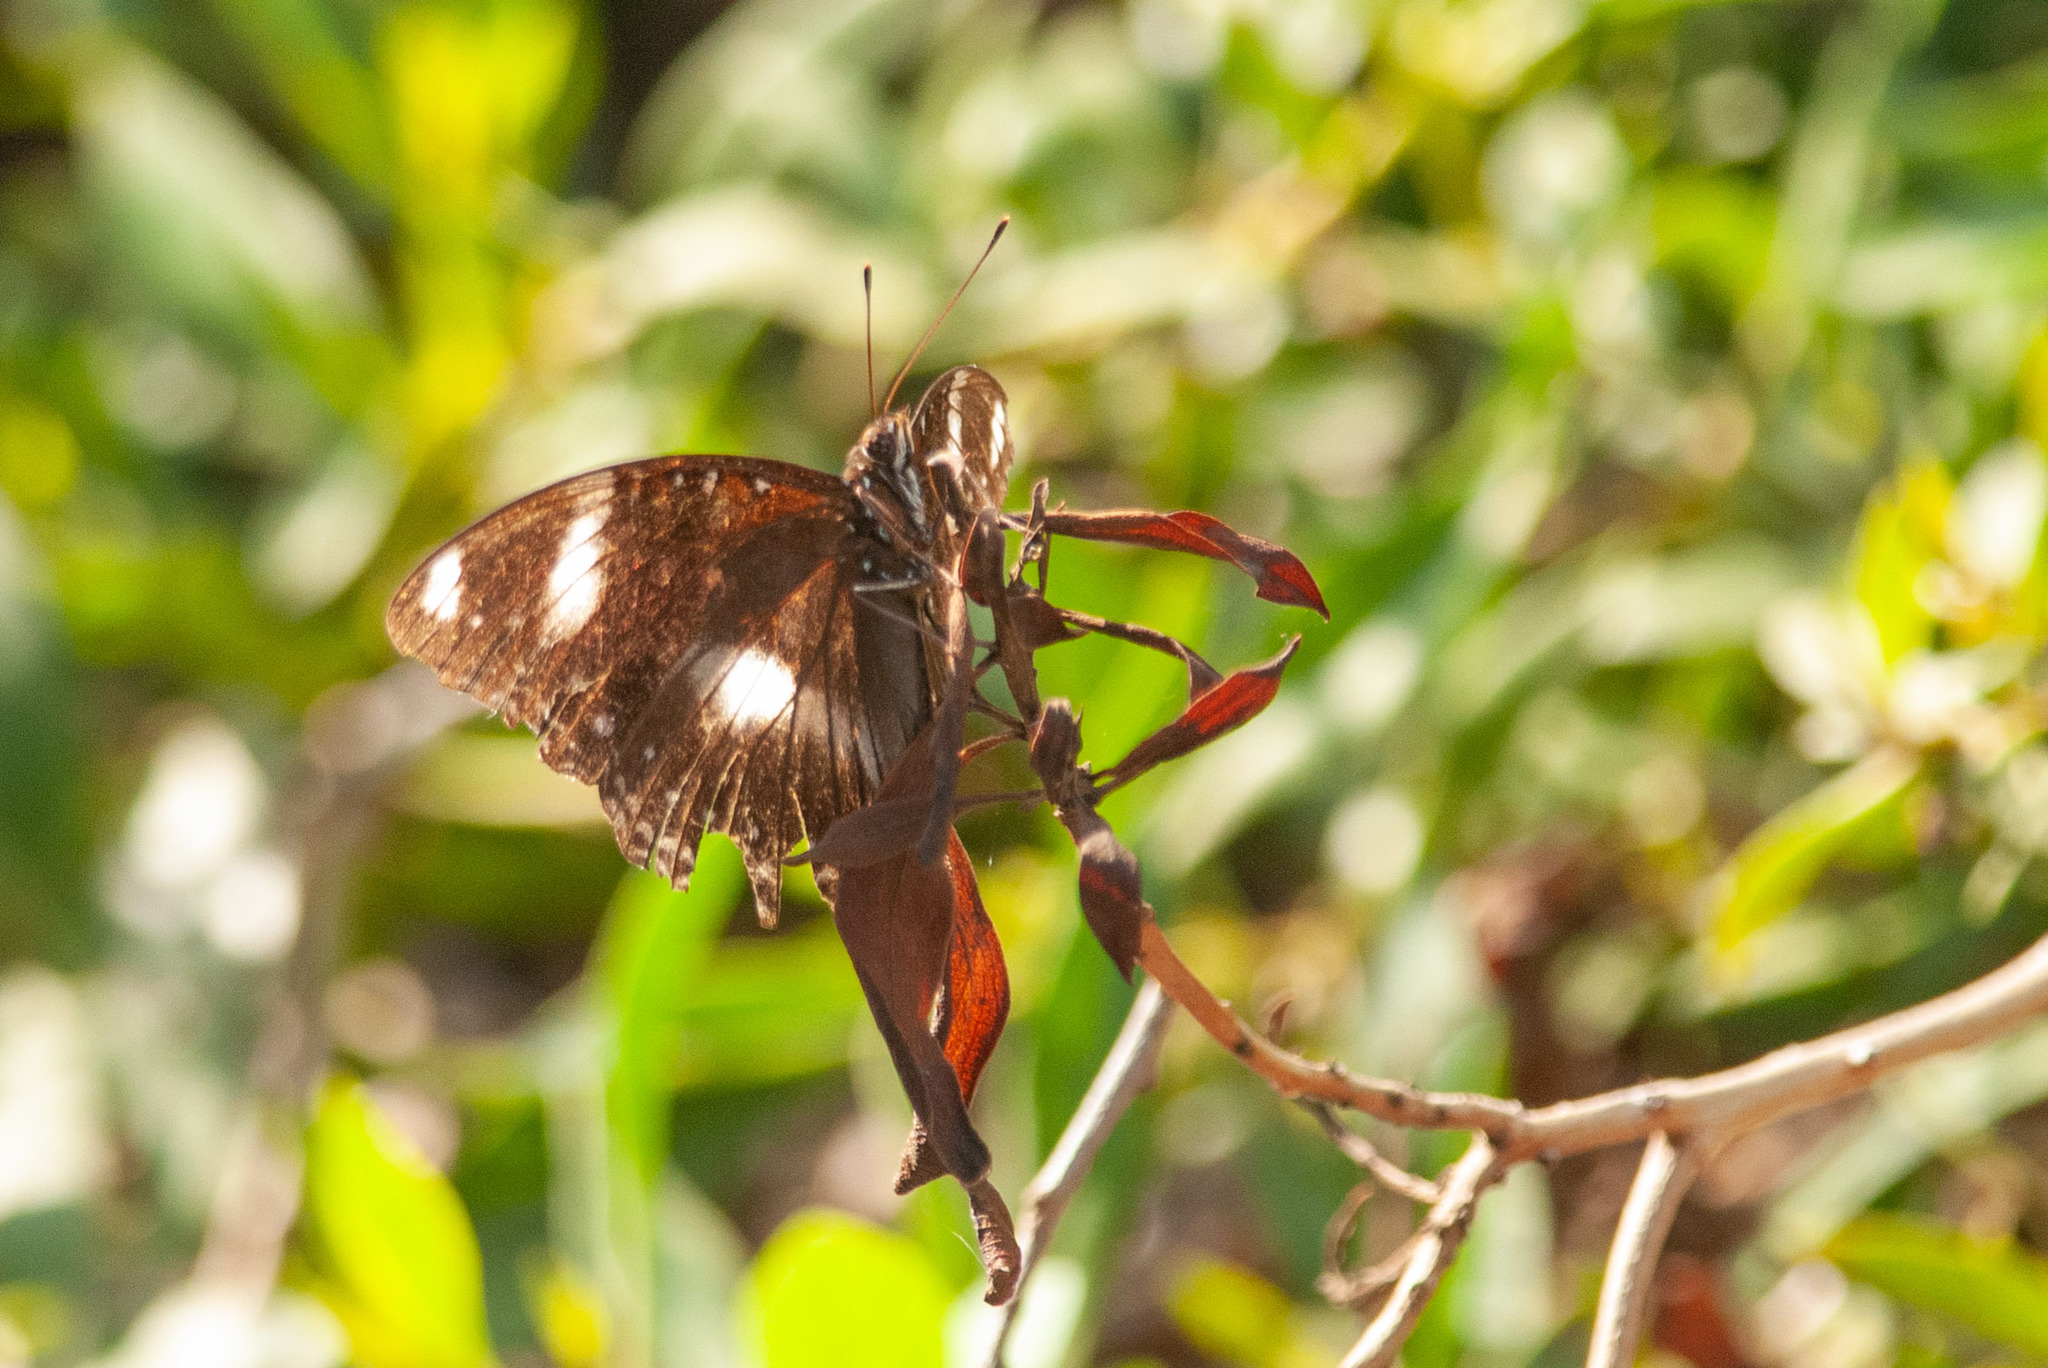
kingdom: Animalia
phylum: Arthropoda
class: Insecta
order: Lepidoptera
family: Nymphalidae
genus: Hypolimnas
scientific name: Hypolimnas bolina
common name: Great eggfly
